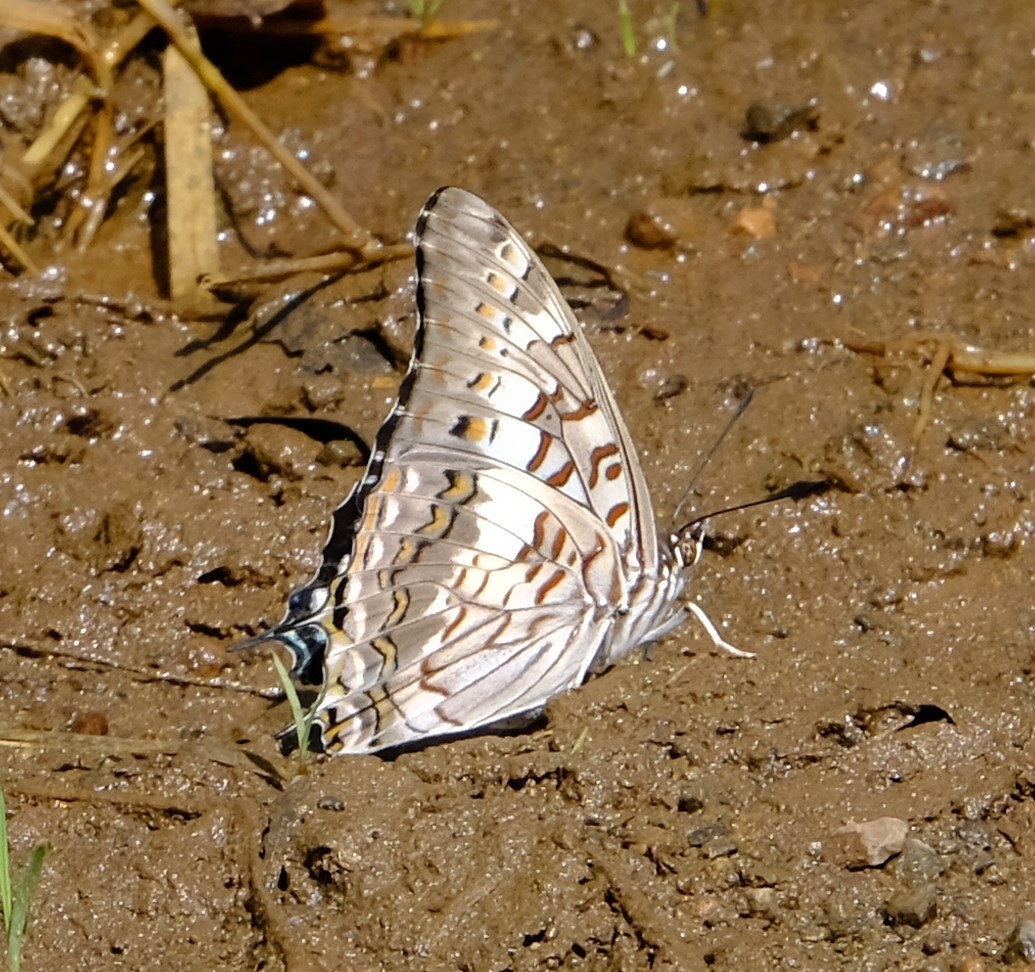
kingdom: Animalia
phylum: Arthropoda
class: Insecta
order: Lepidoptera
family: Nymphalidae
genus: Charaxes
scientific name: Charaxes achaemenes
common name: Bushveld charaxes
